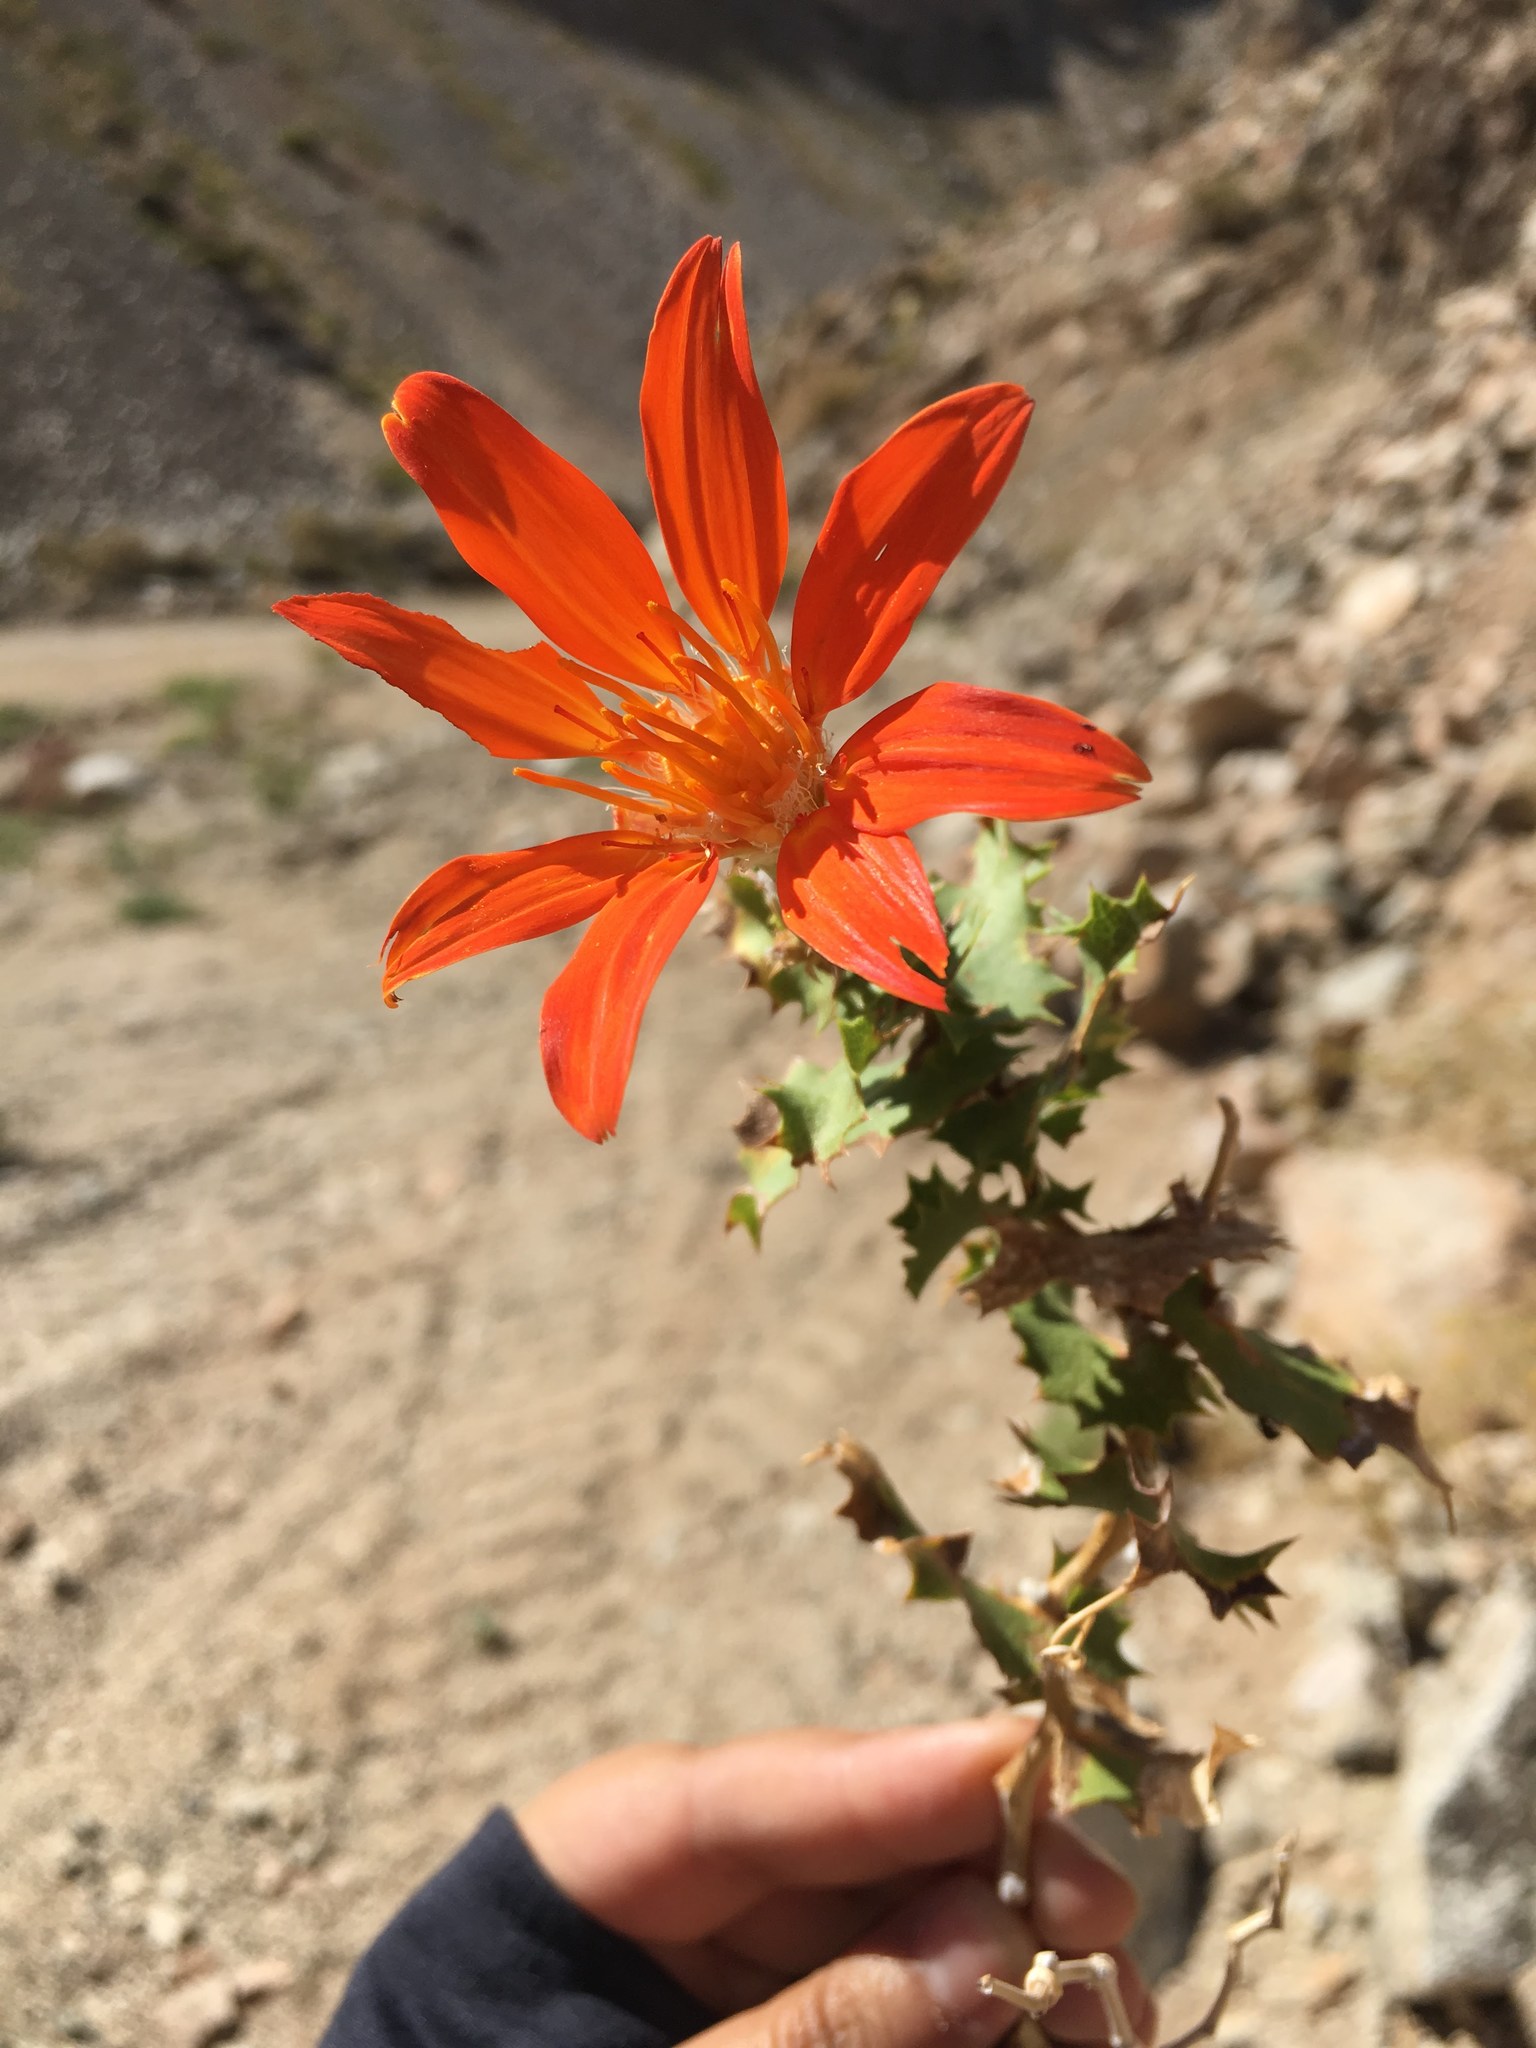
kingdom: Plantae
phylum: Tracheophyta
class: Magnoliopsida
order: Asterales
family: Asteraceae
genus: Mutisia
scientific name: Mutisia cana
